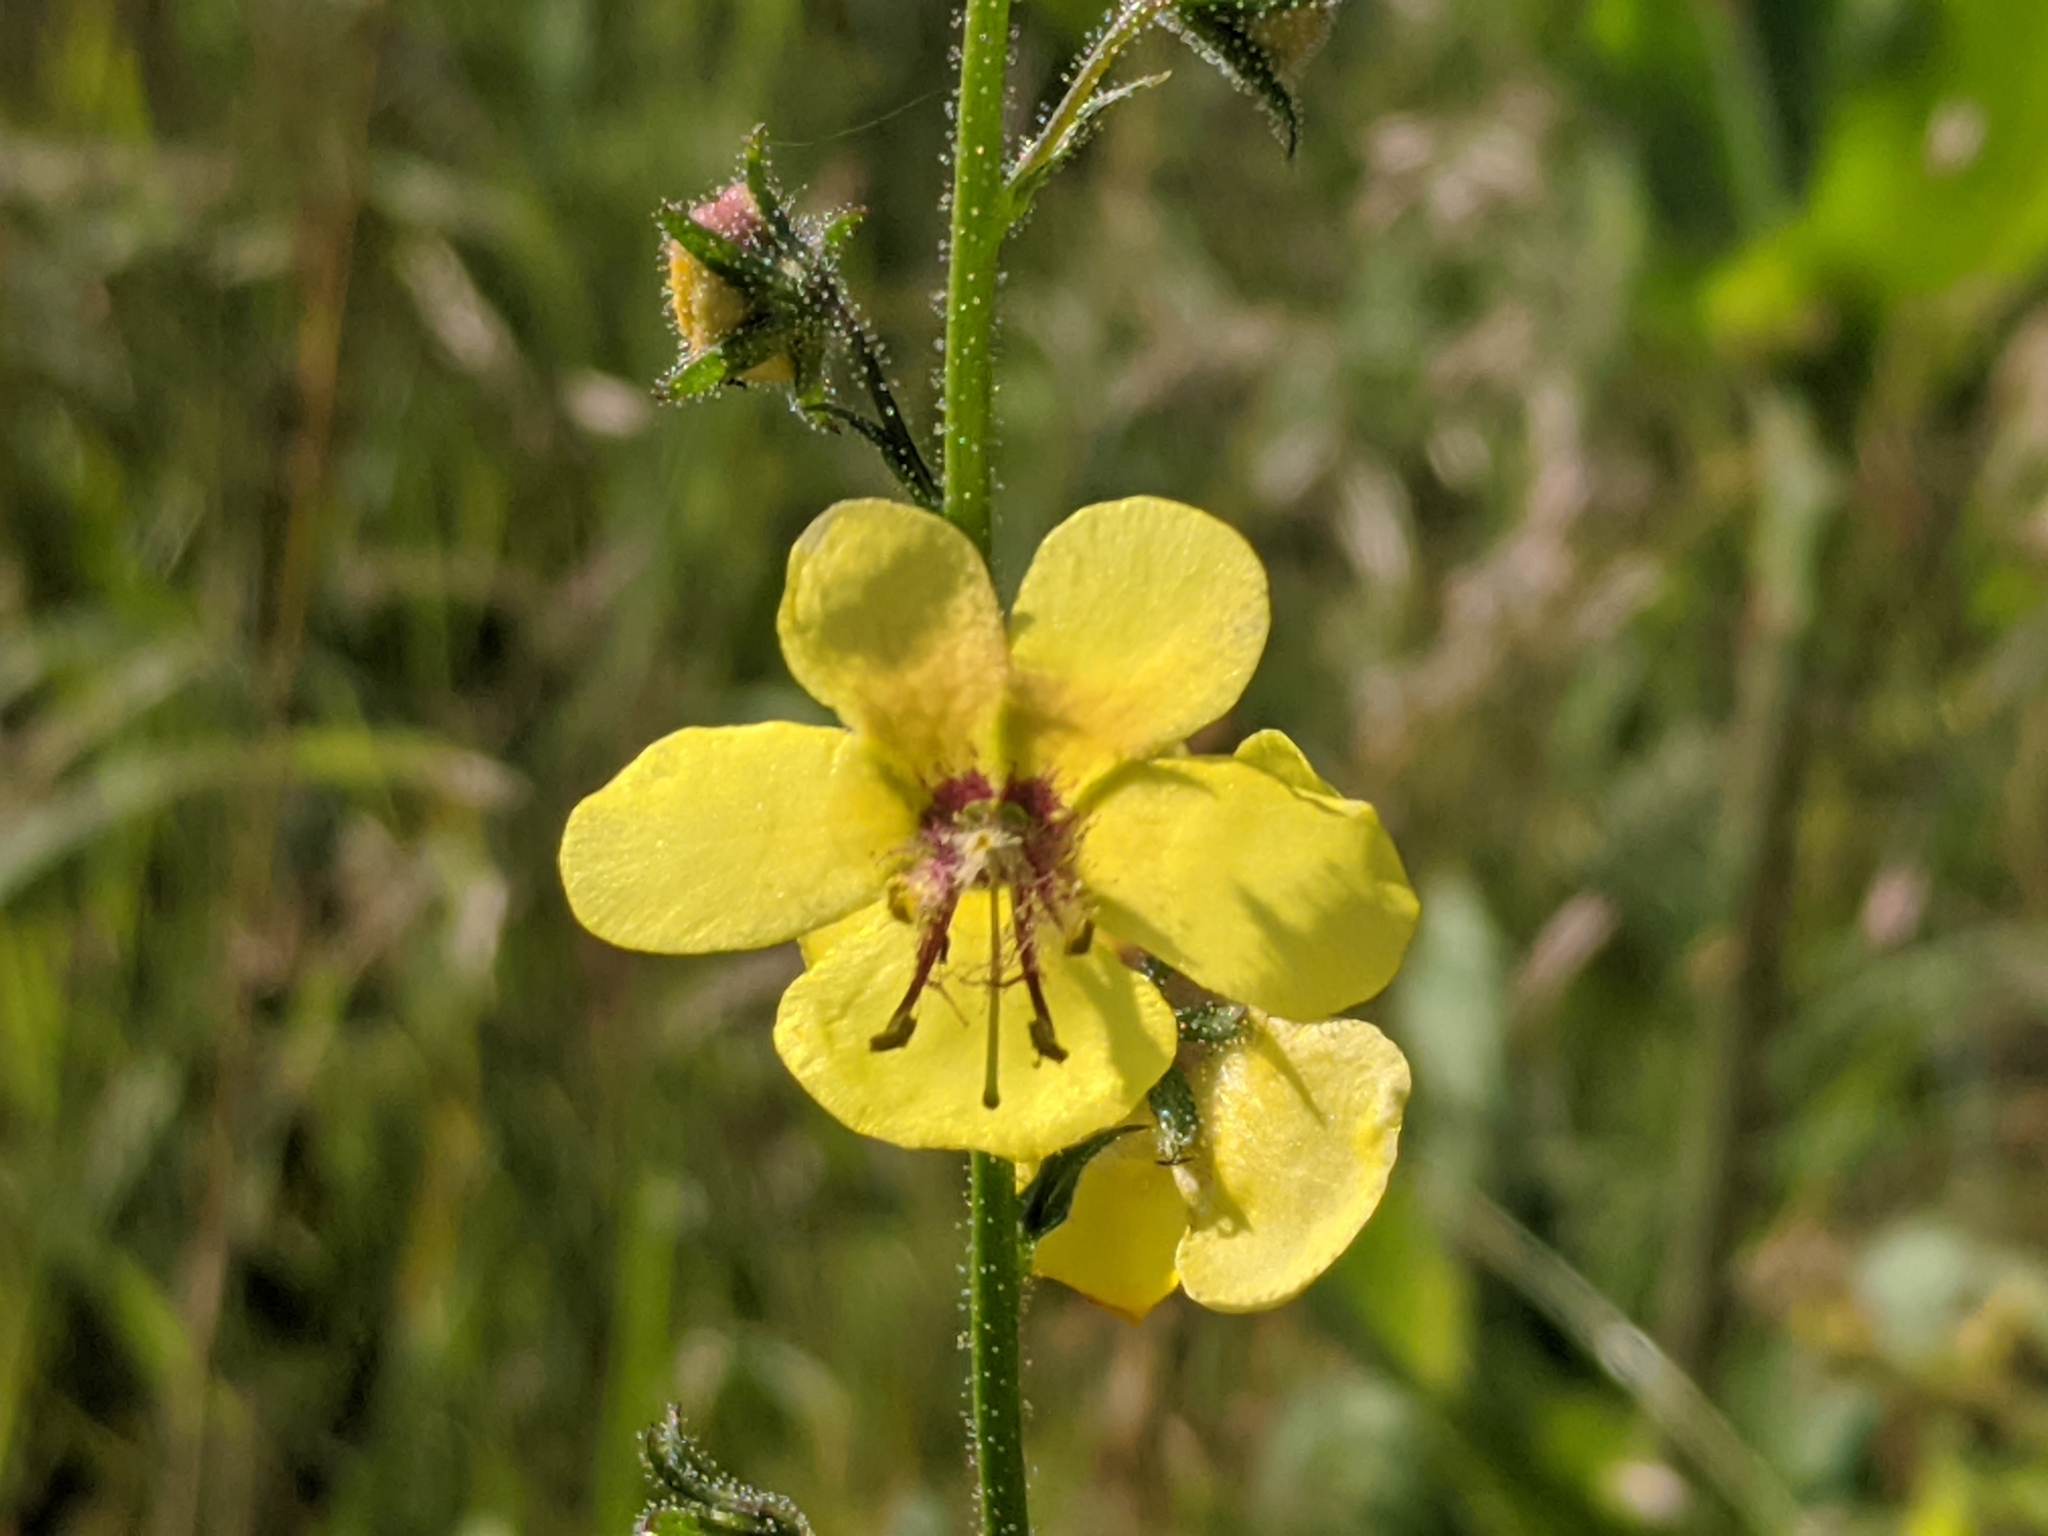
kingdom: Plantae
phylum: Tracheophyta
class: Magnoliopsida
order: Lamiales
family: Scrophulariaceae
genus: Verbascum
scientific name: Verbascum blattaria
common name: Moth mullein
